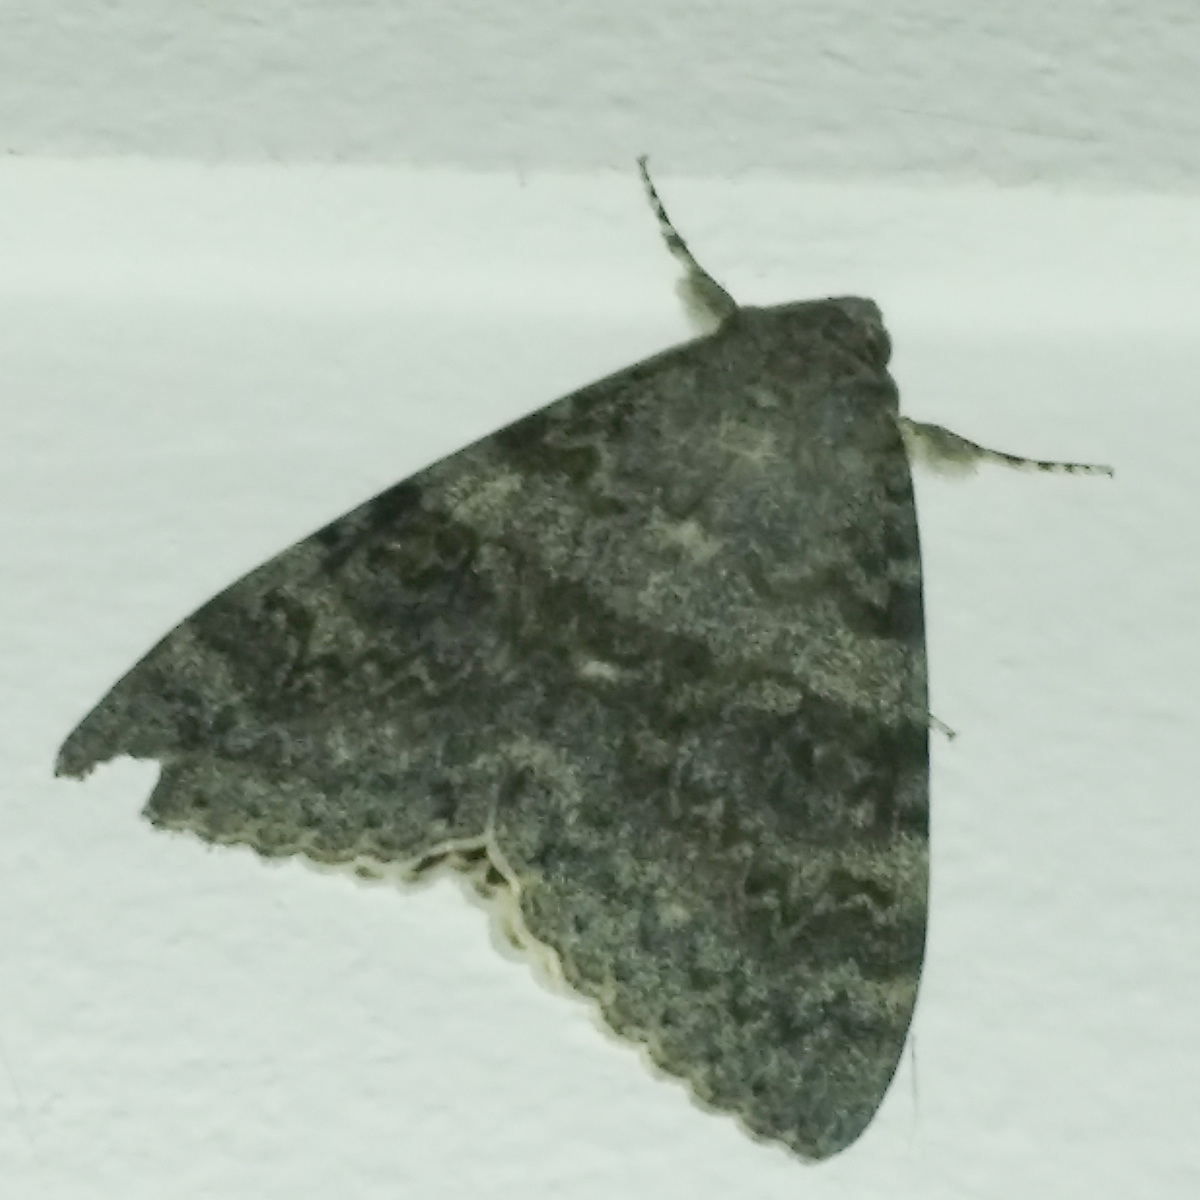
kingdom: Animalia
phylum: Arthropoda
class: Insecta
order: Lepidoptera
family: Erebidae
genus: Catocala
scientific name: Catocala elocata
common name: French red underwing
